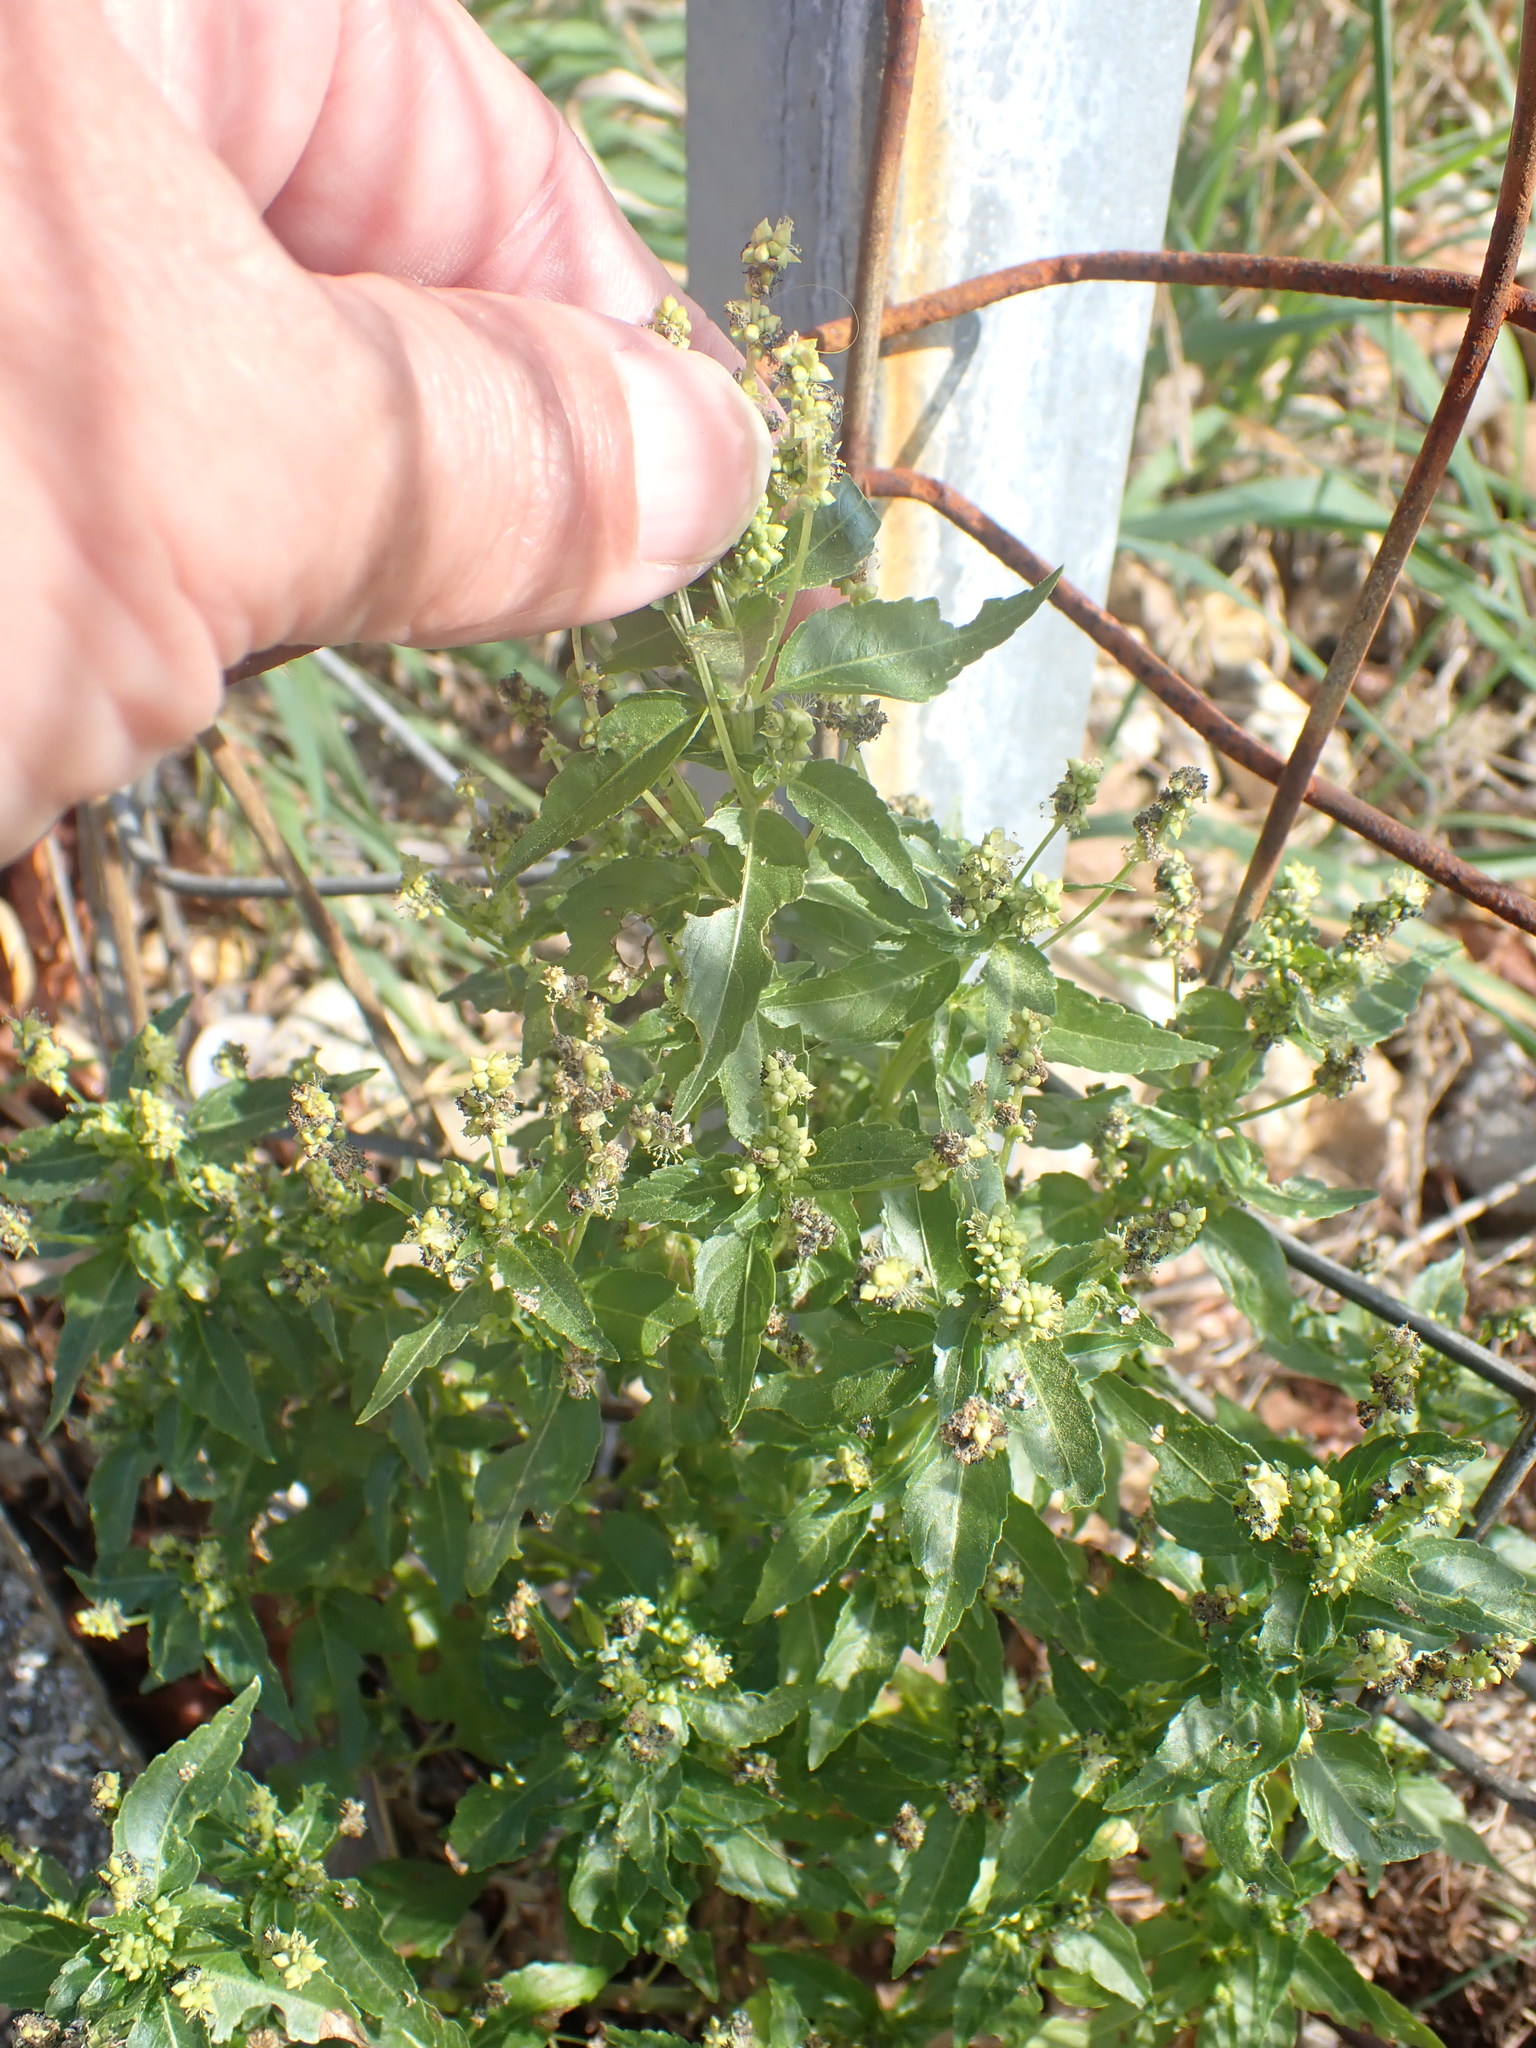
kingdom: Plantae
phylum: Tracheophyta
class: Magnoliopsida
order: Malpighiales
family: Euphorbiaceae
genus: Mercurialis
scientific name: Mercurialis annua
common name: Annual mercury
